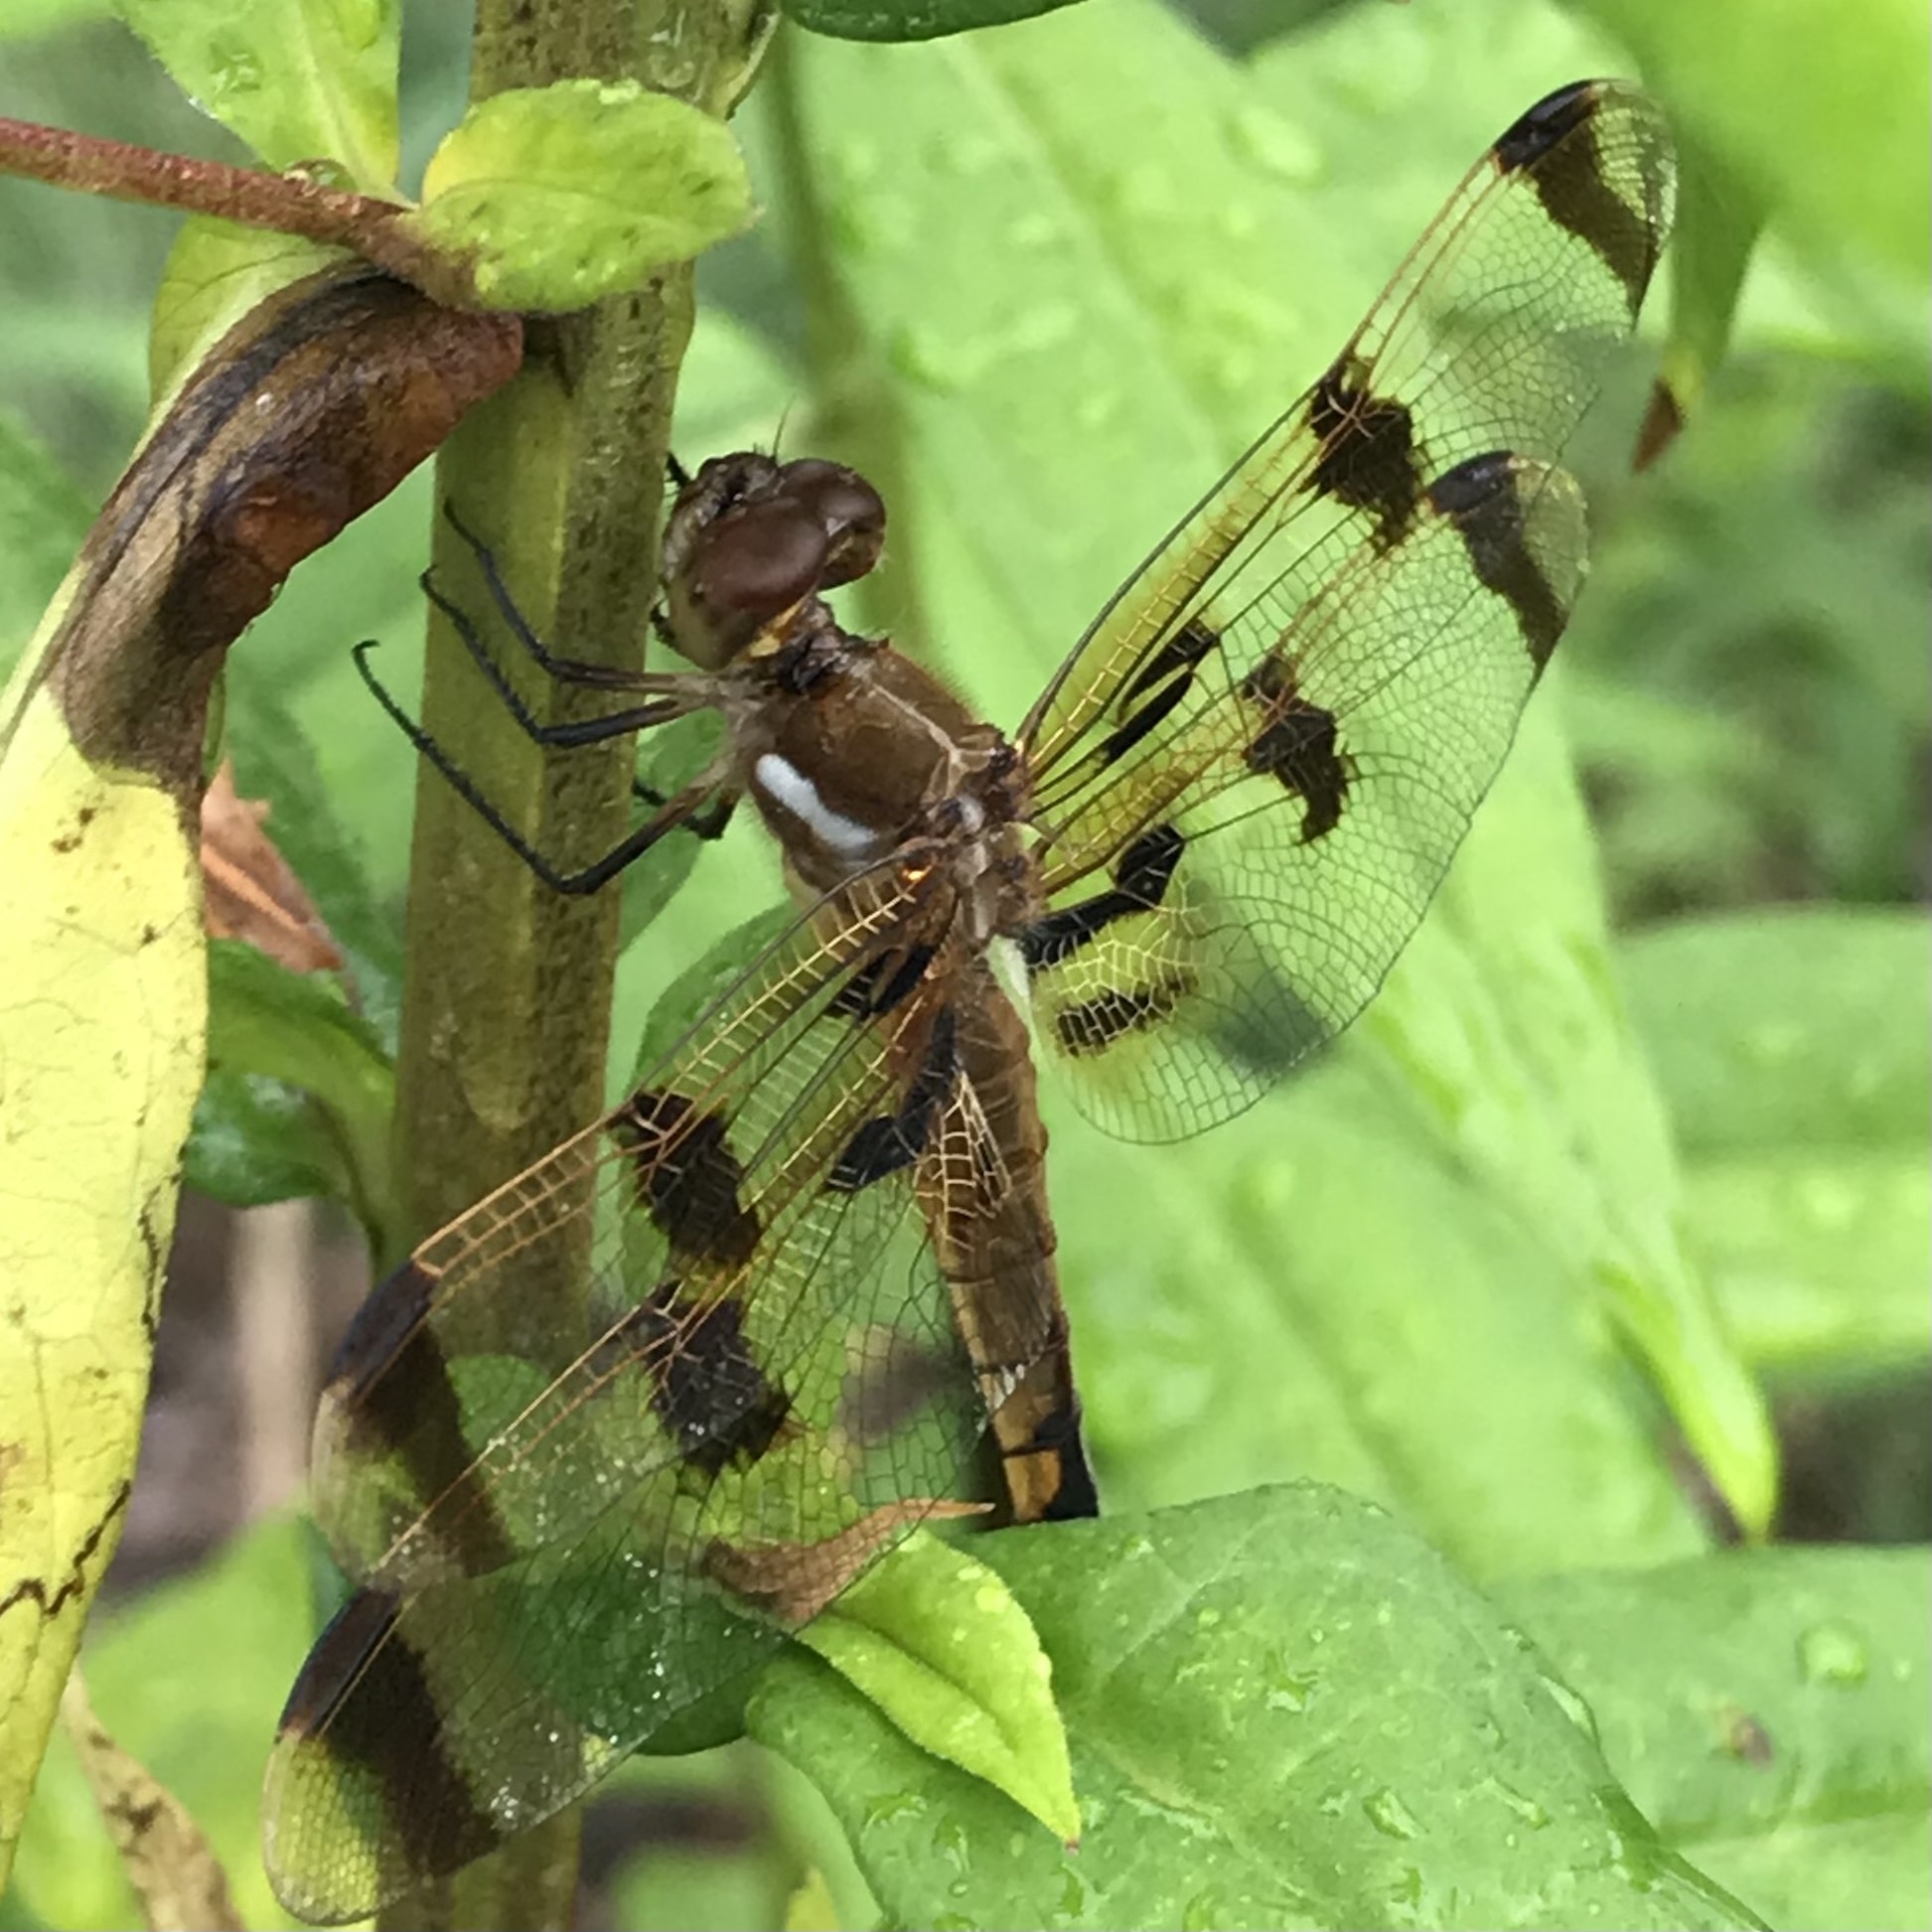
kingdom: Animalia
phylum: Arthropoda
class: Insecta
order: Odonata
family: Libellulidae
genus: Libellula
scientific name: Libellula semifasciata
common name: Painted skimmer
